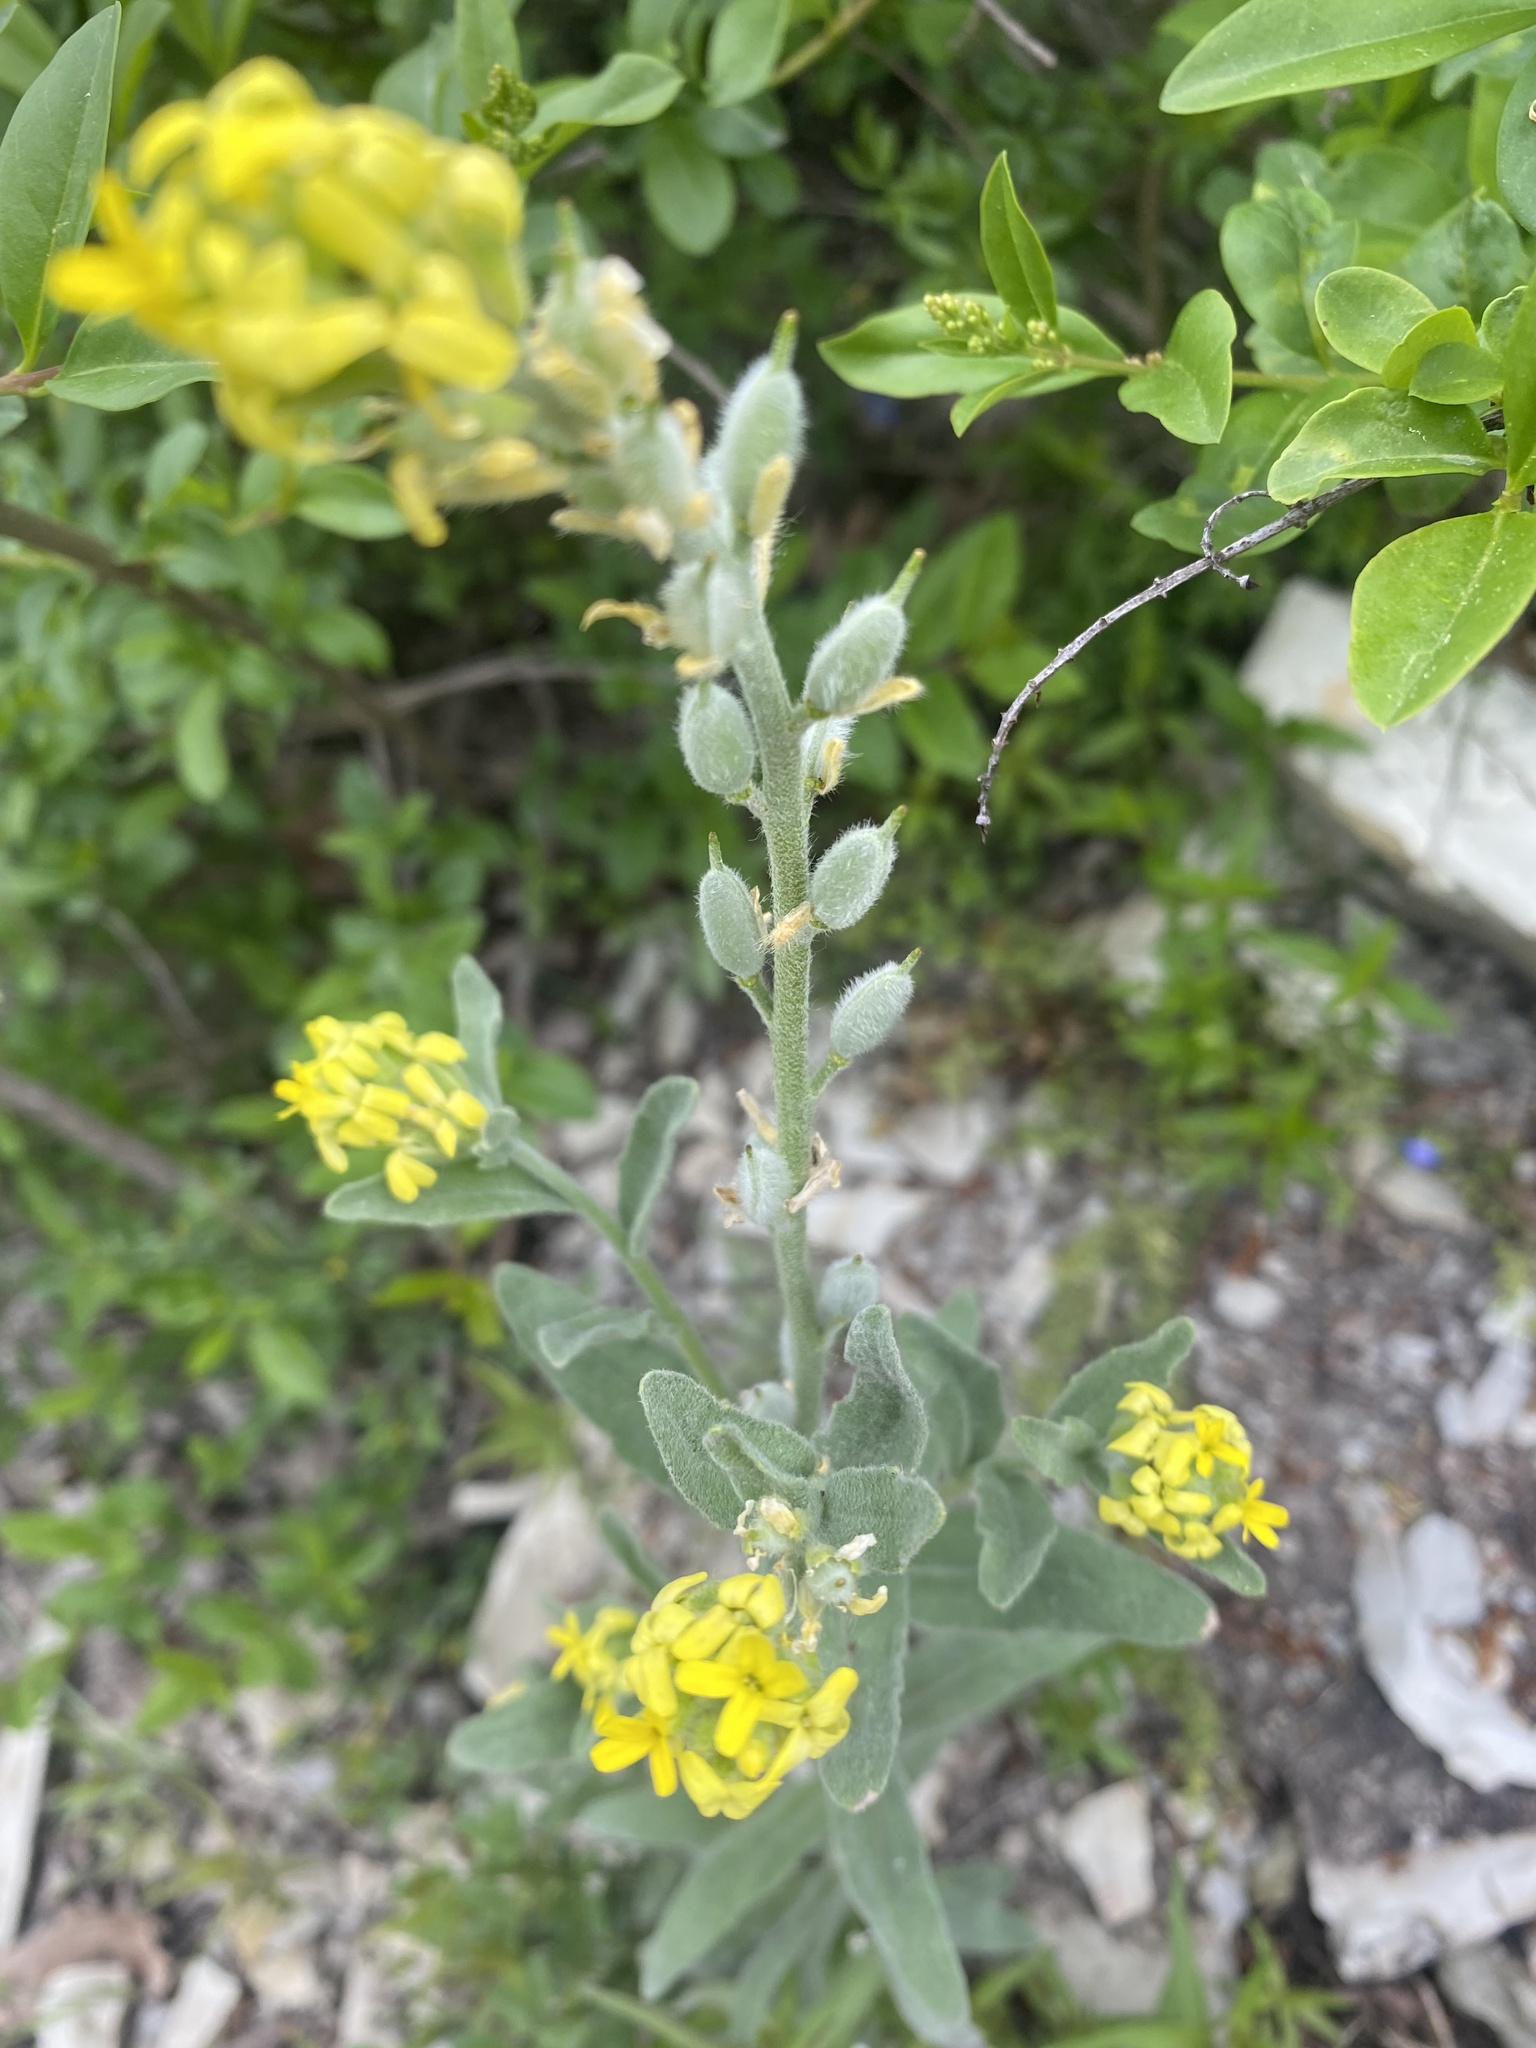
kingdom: Plantae
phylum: Tracheophyta
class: Magnoliopsida
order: Brassicales
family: Brassicaceae
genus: Fibigia
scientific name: Fibigia clypeata
